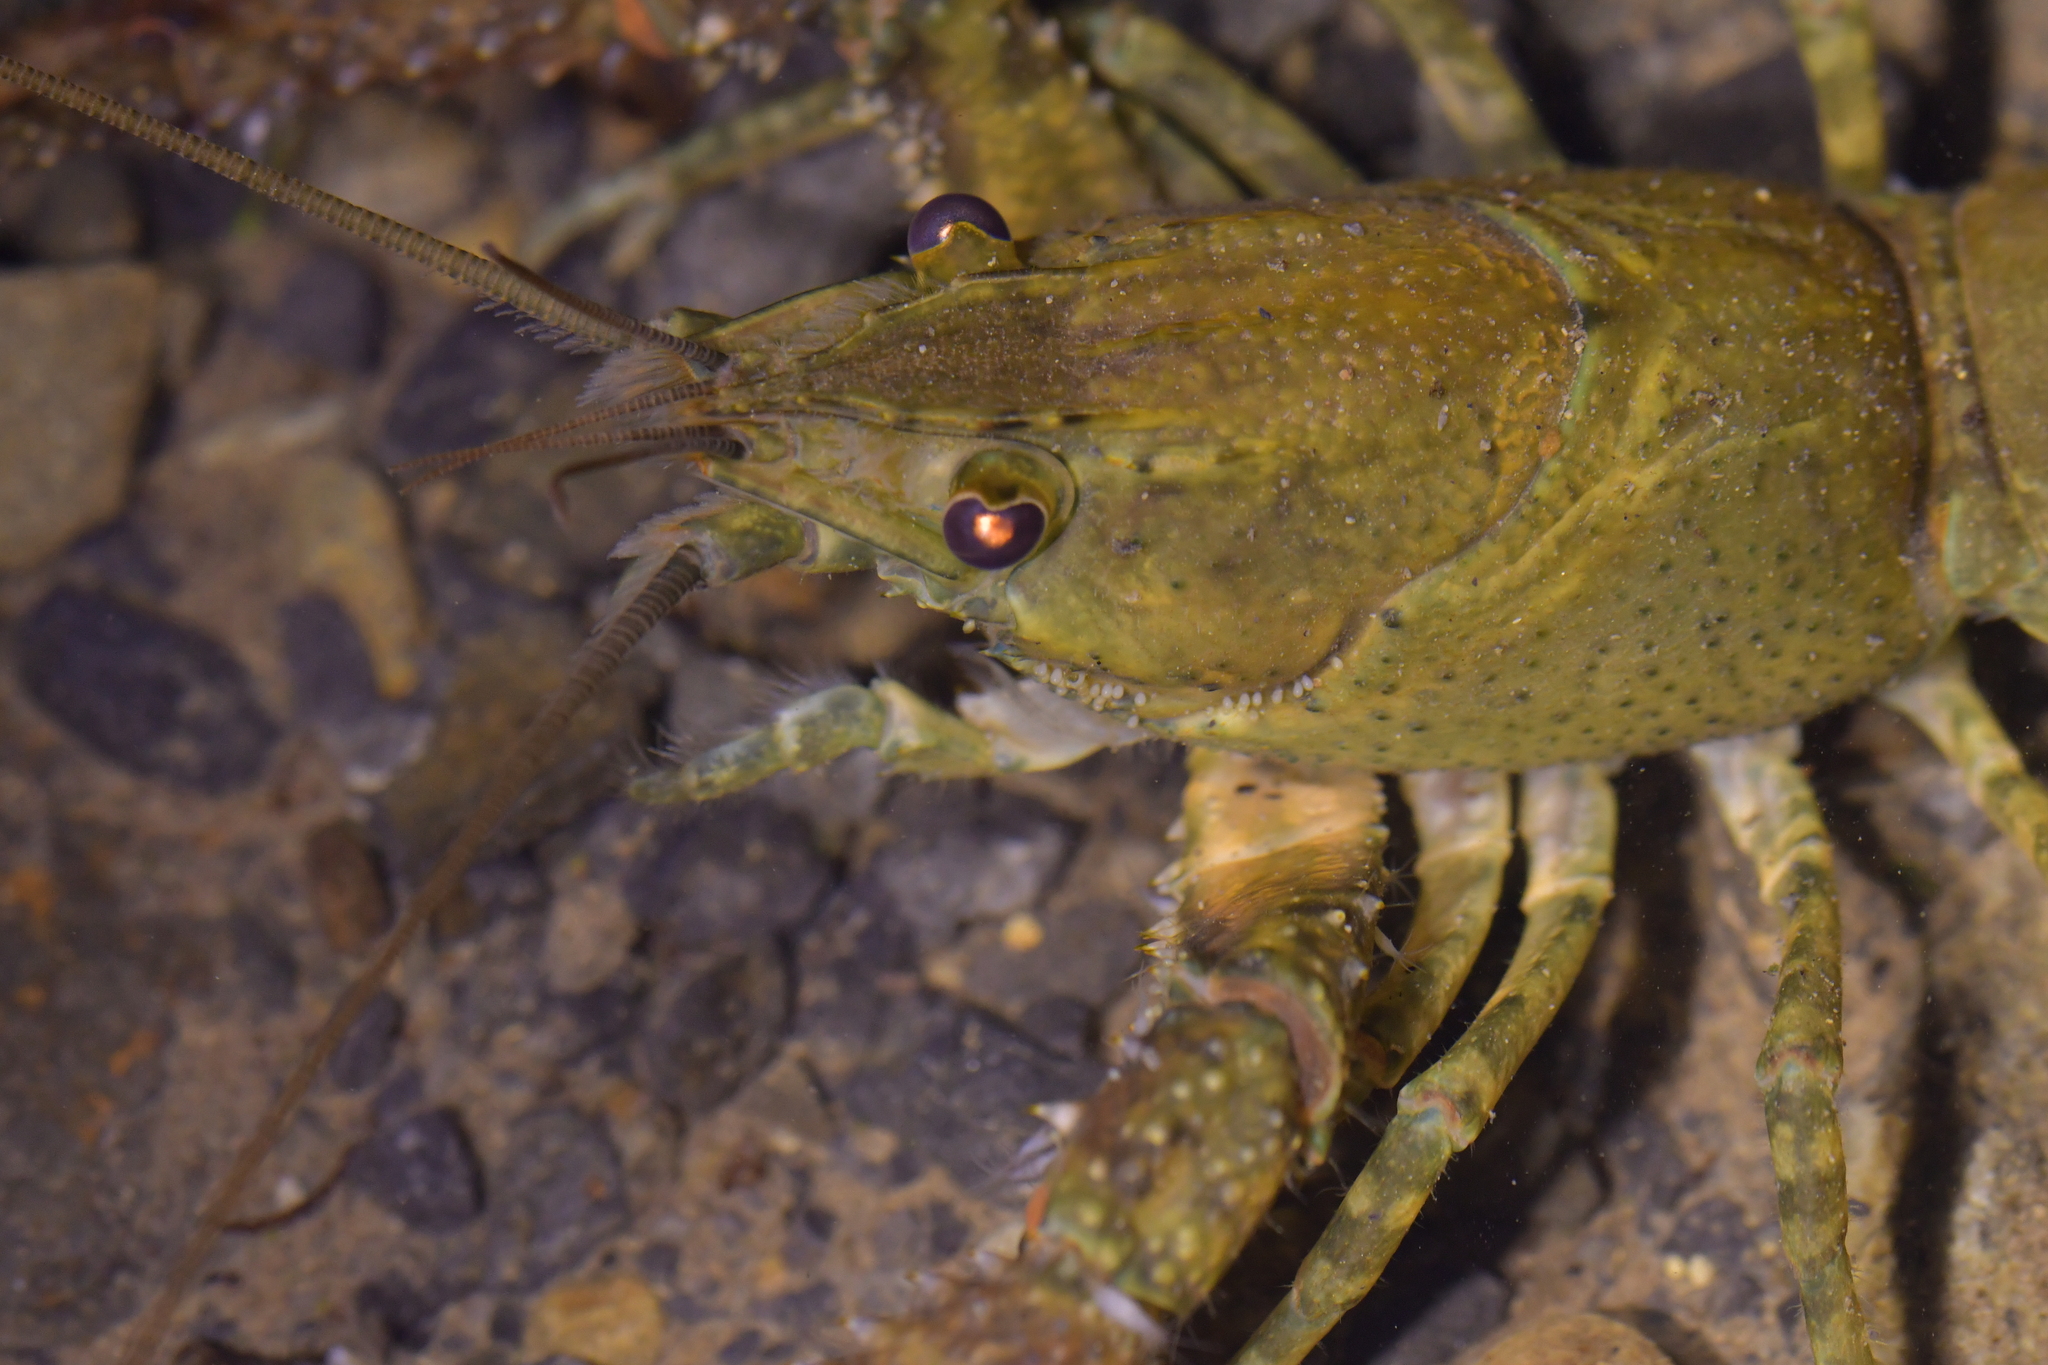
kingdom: Animalia
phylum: Arthropoda
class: Malacostraca
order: Decapoda
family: Parastacidae
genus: Paranephrops
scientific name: Paranephrops planifrons
